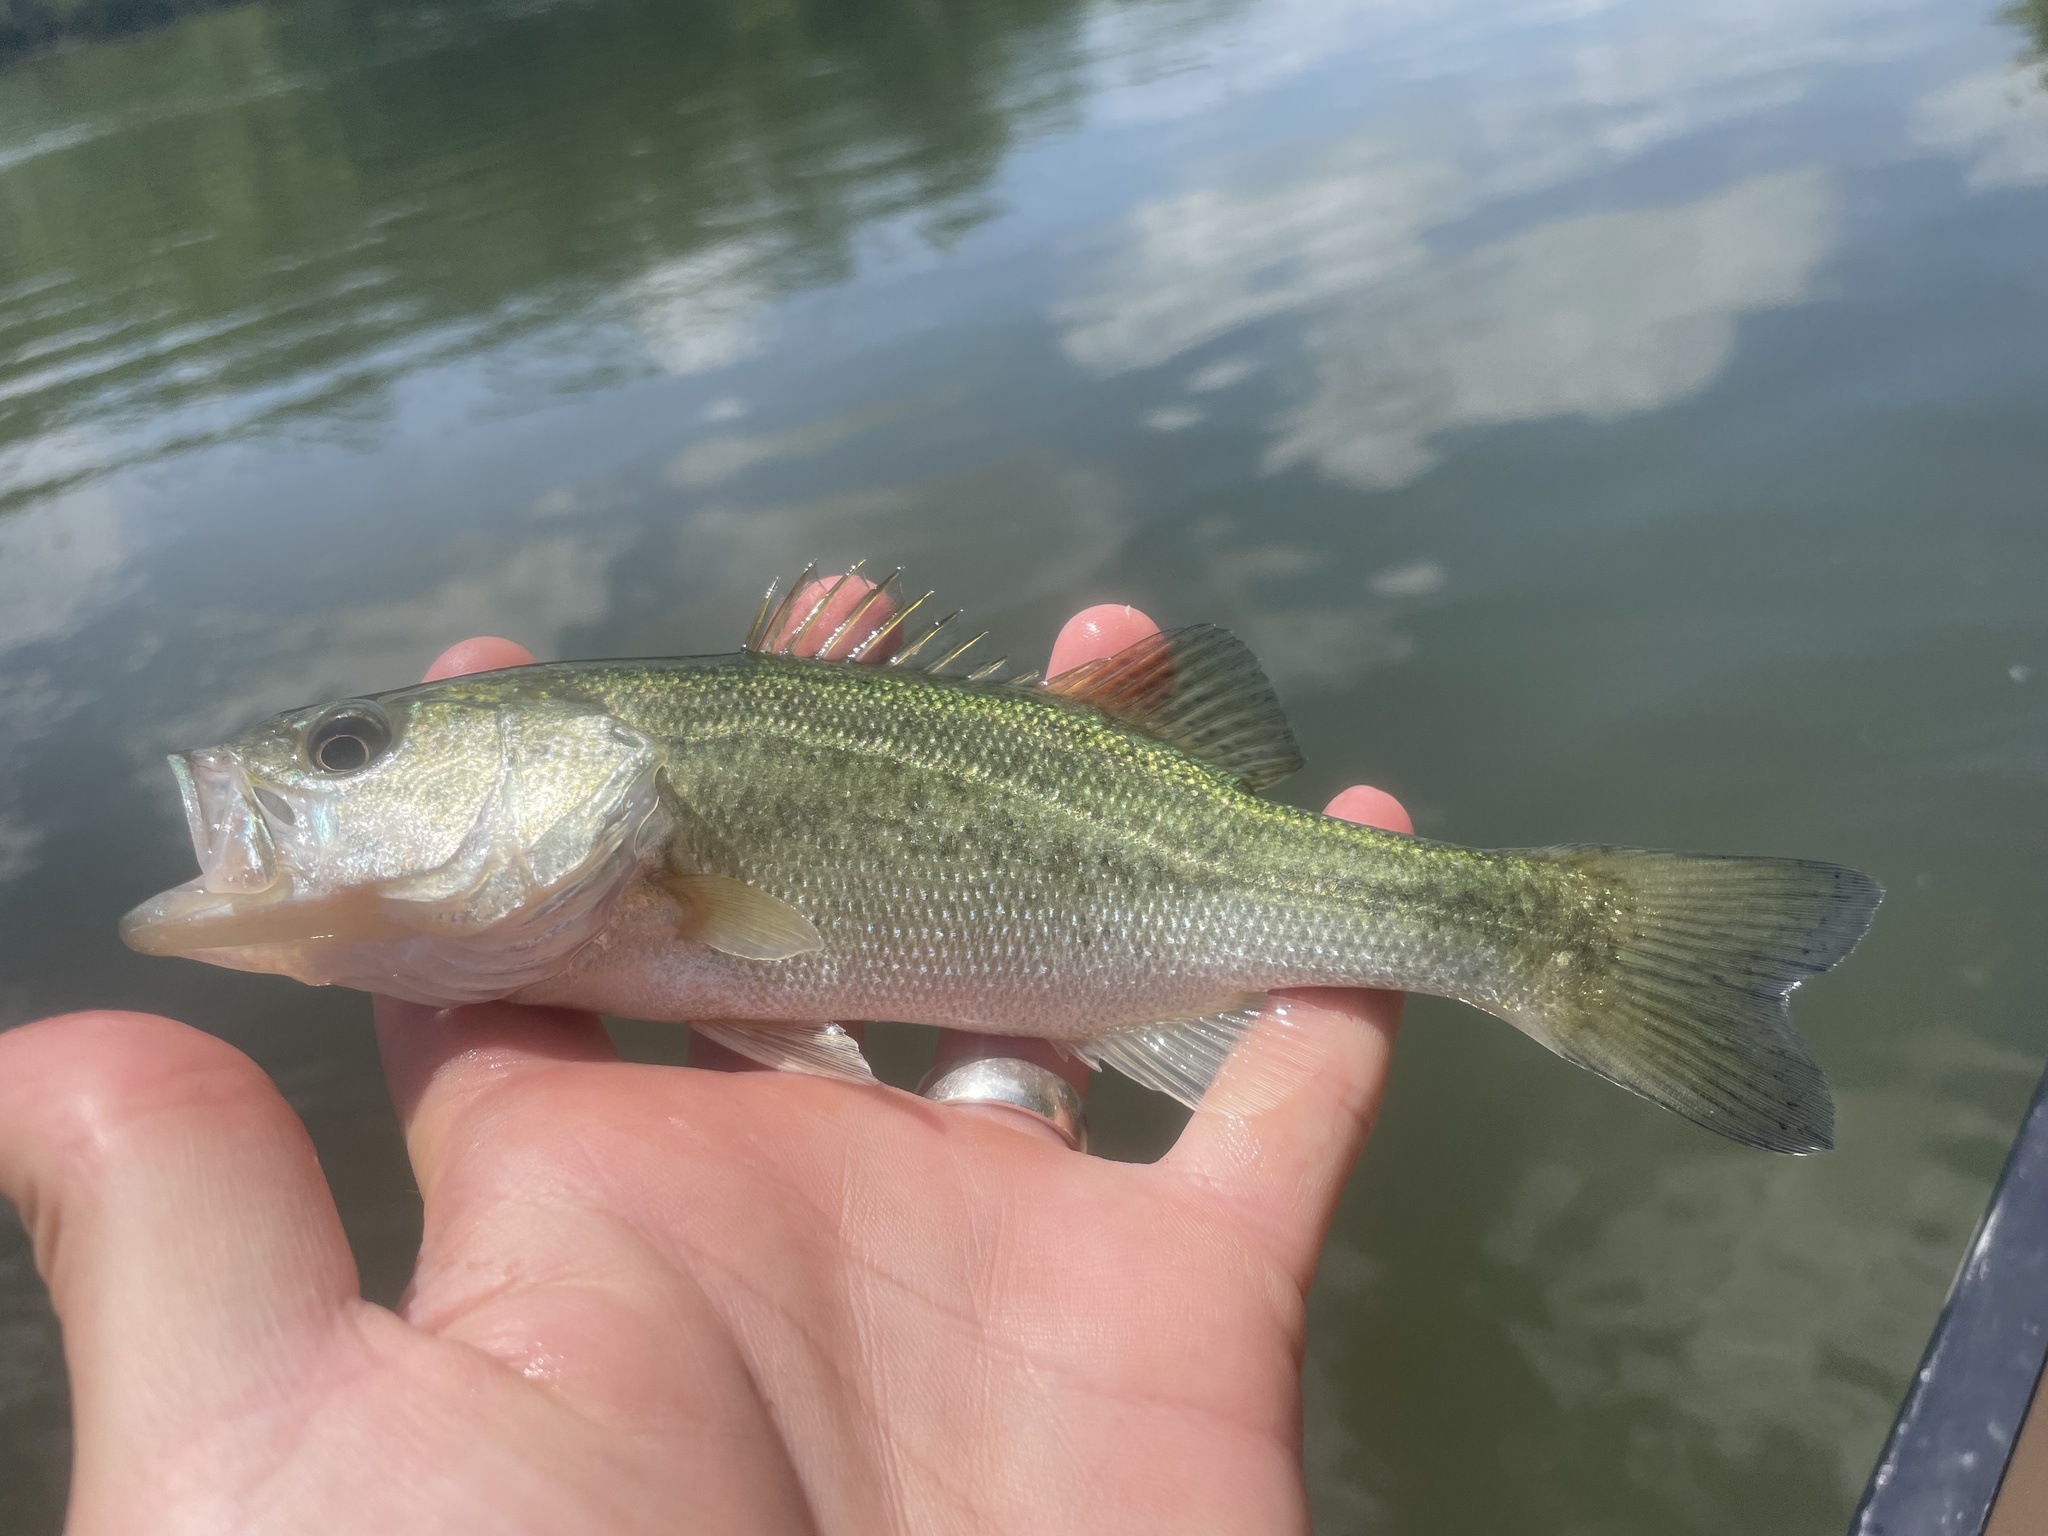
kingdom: Animalia
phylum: Chordata
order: Perciformes
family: Centrarchidae
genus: Micropterus
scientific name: Micropterus
